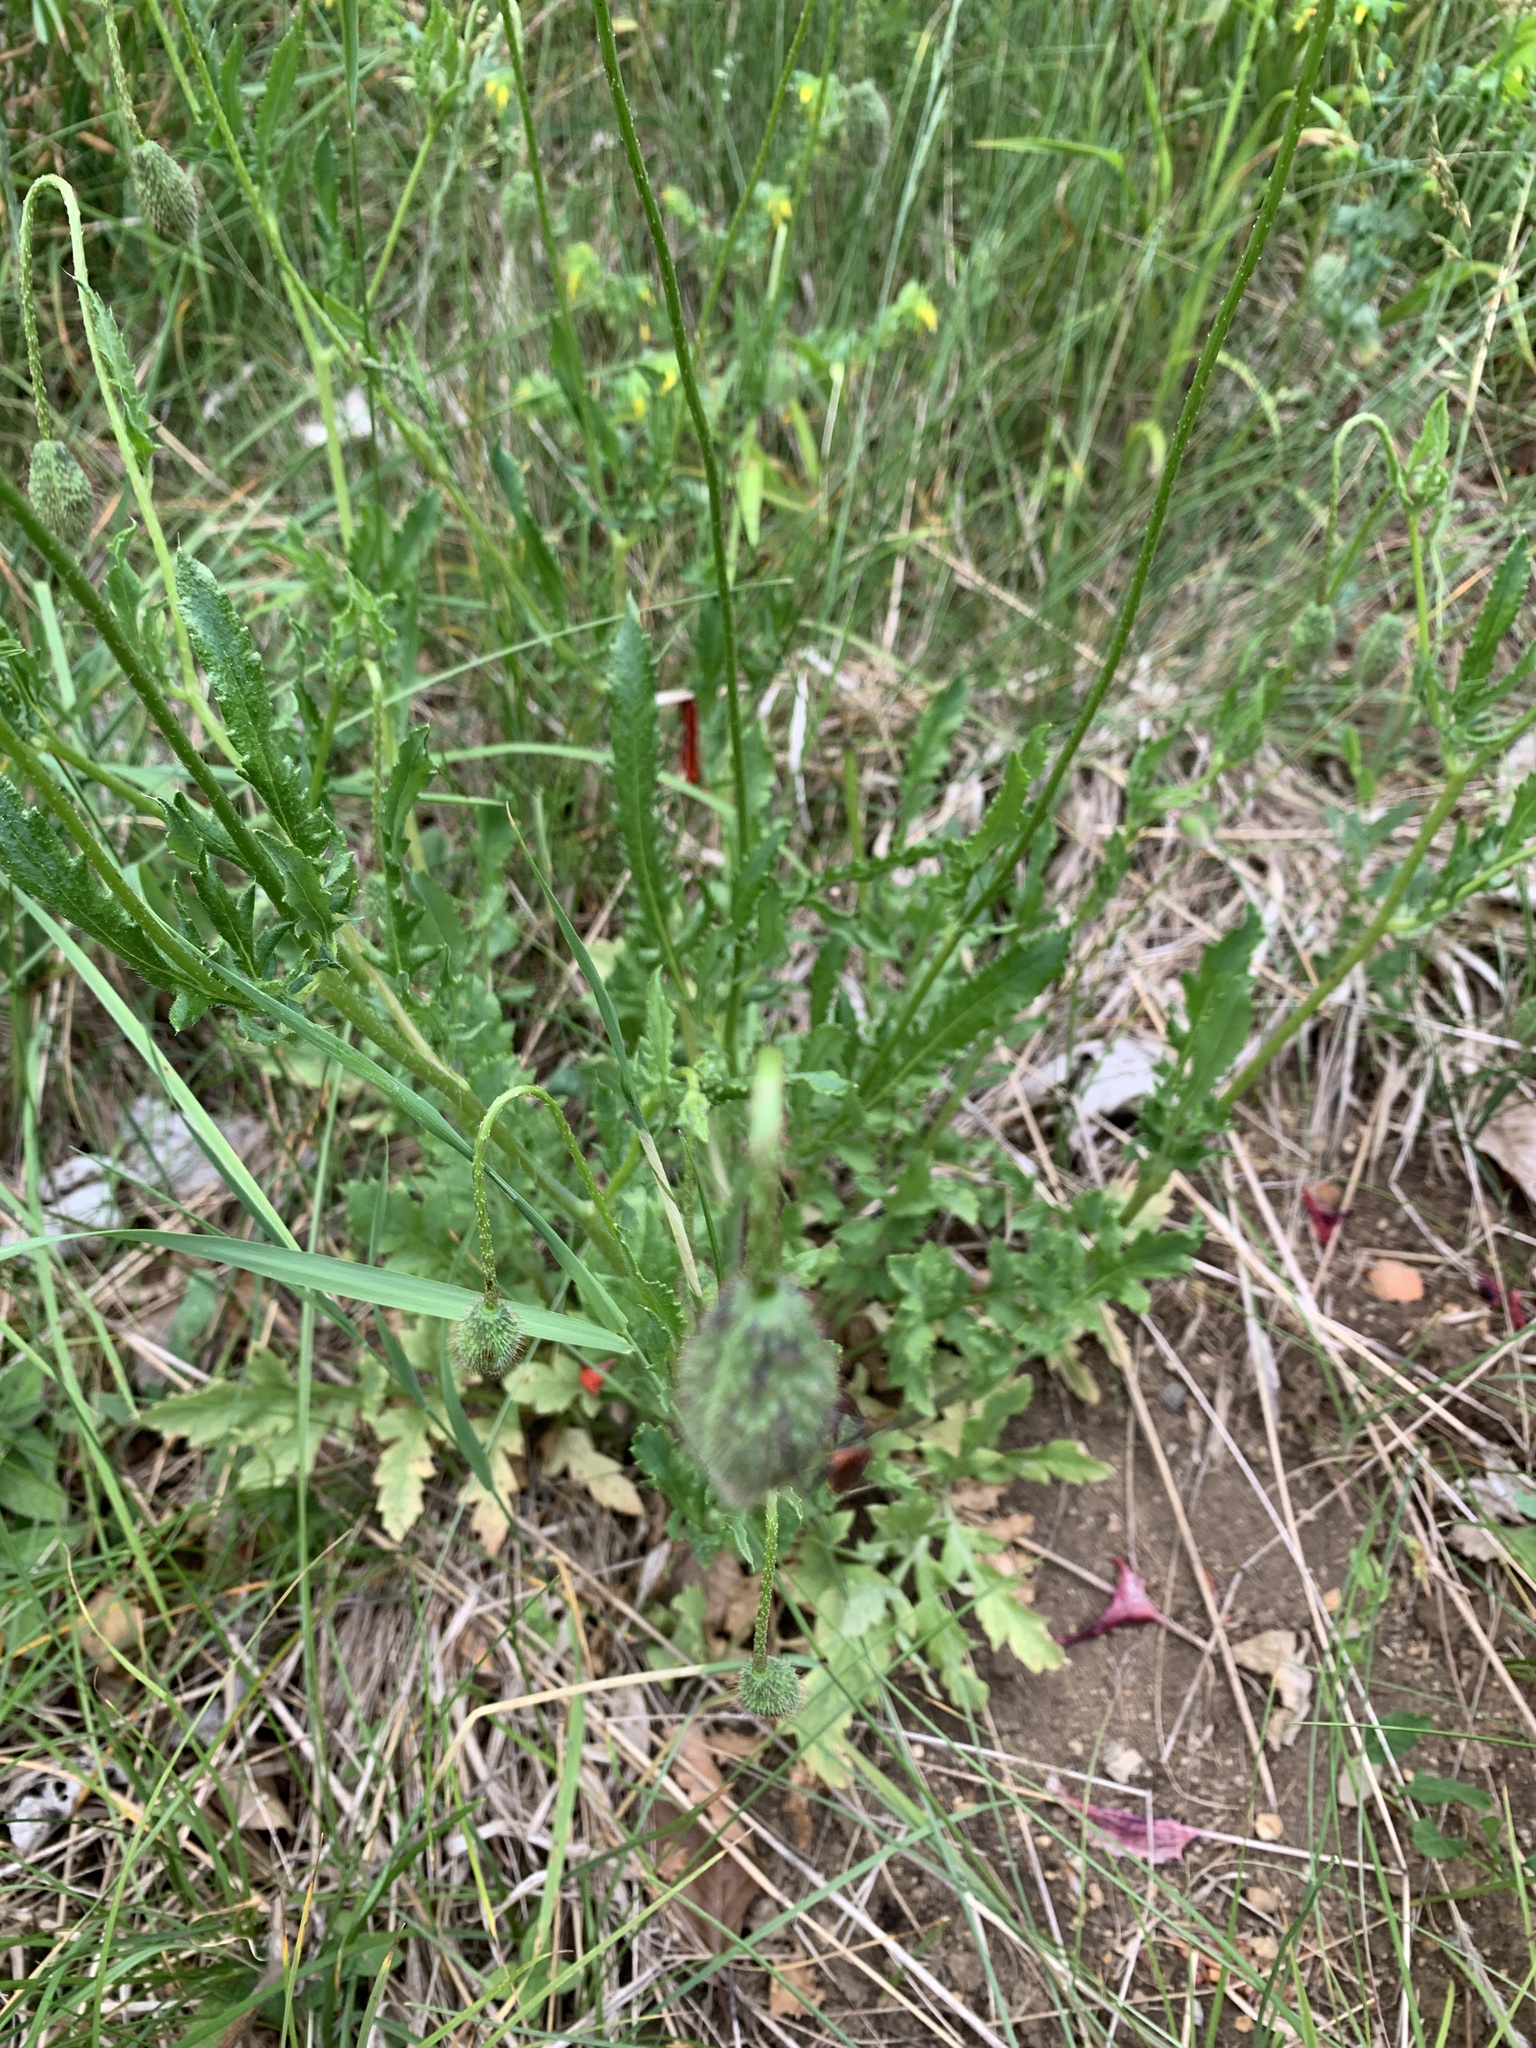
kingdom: Plantae
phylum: Tracheophyta
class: Magnoliopsida
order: Ranunculales
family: Papaveraceae
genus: Papaver
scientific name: Papaver rhoeas
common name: Corn poppy
